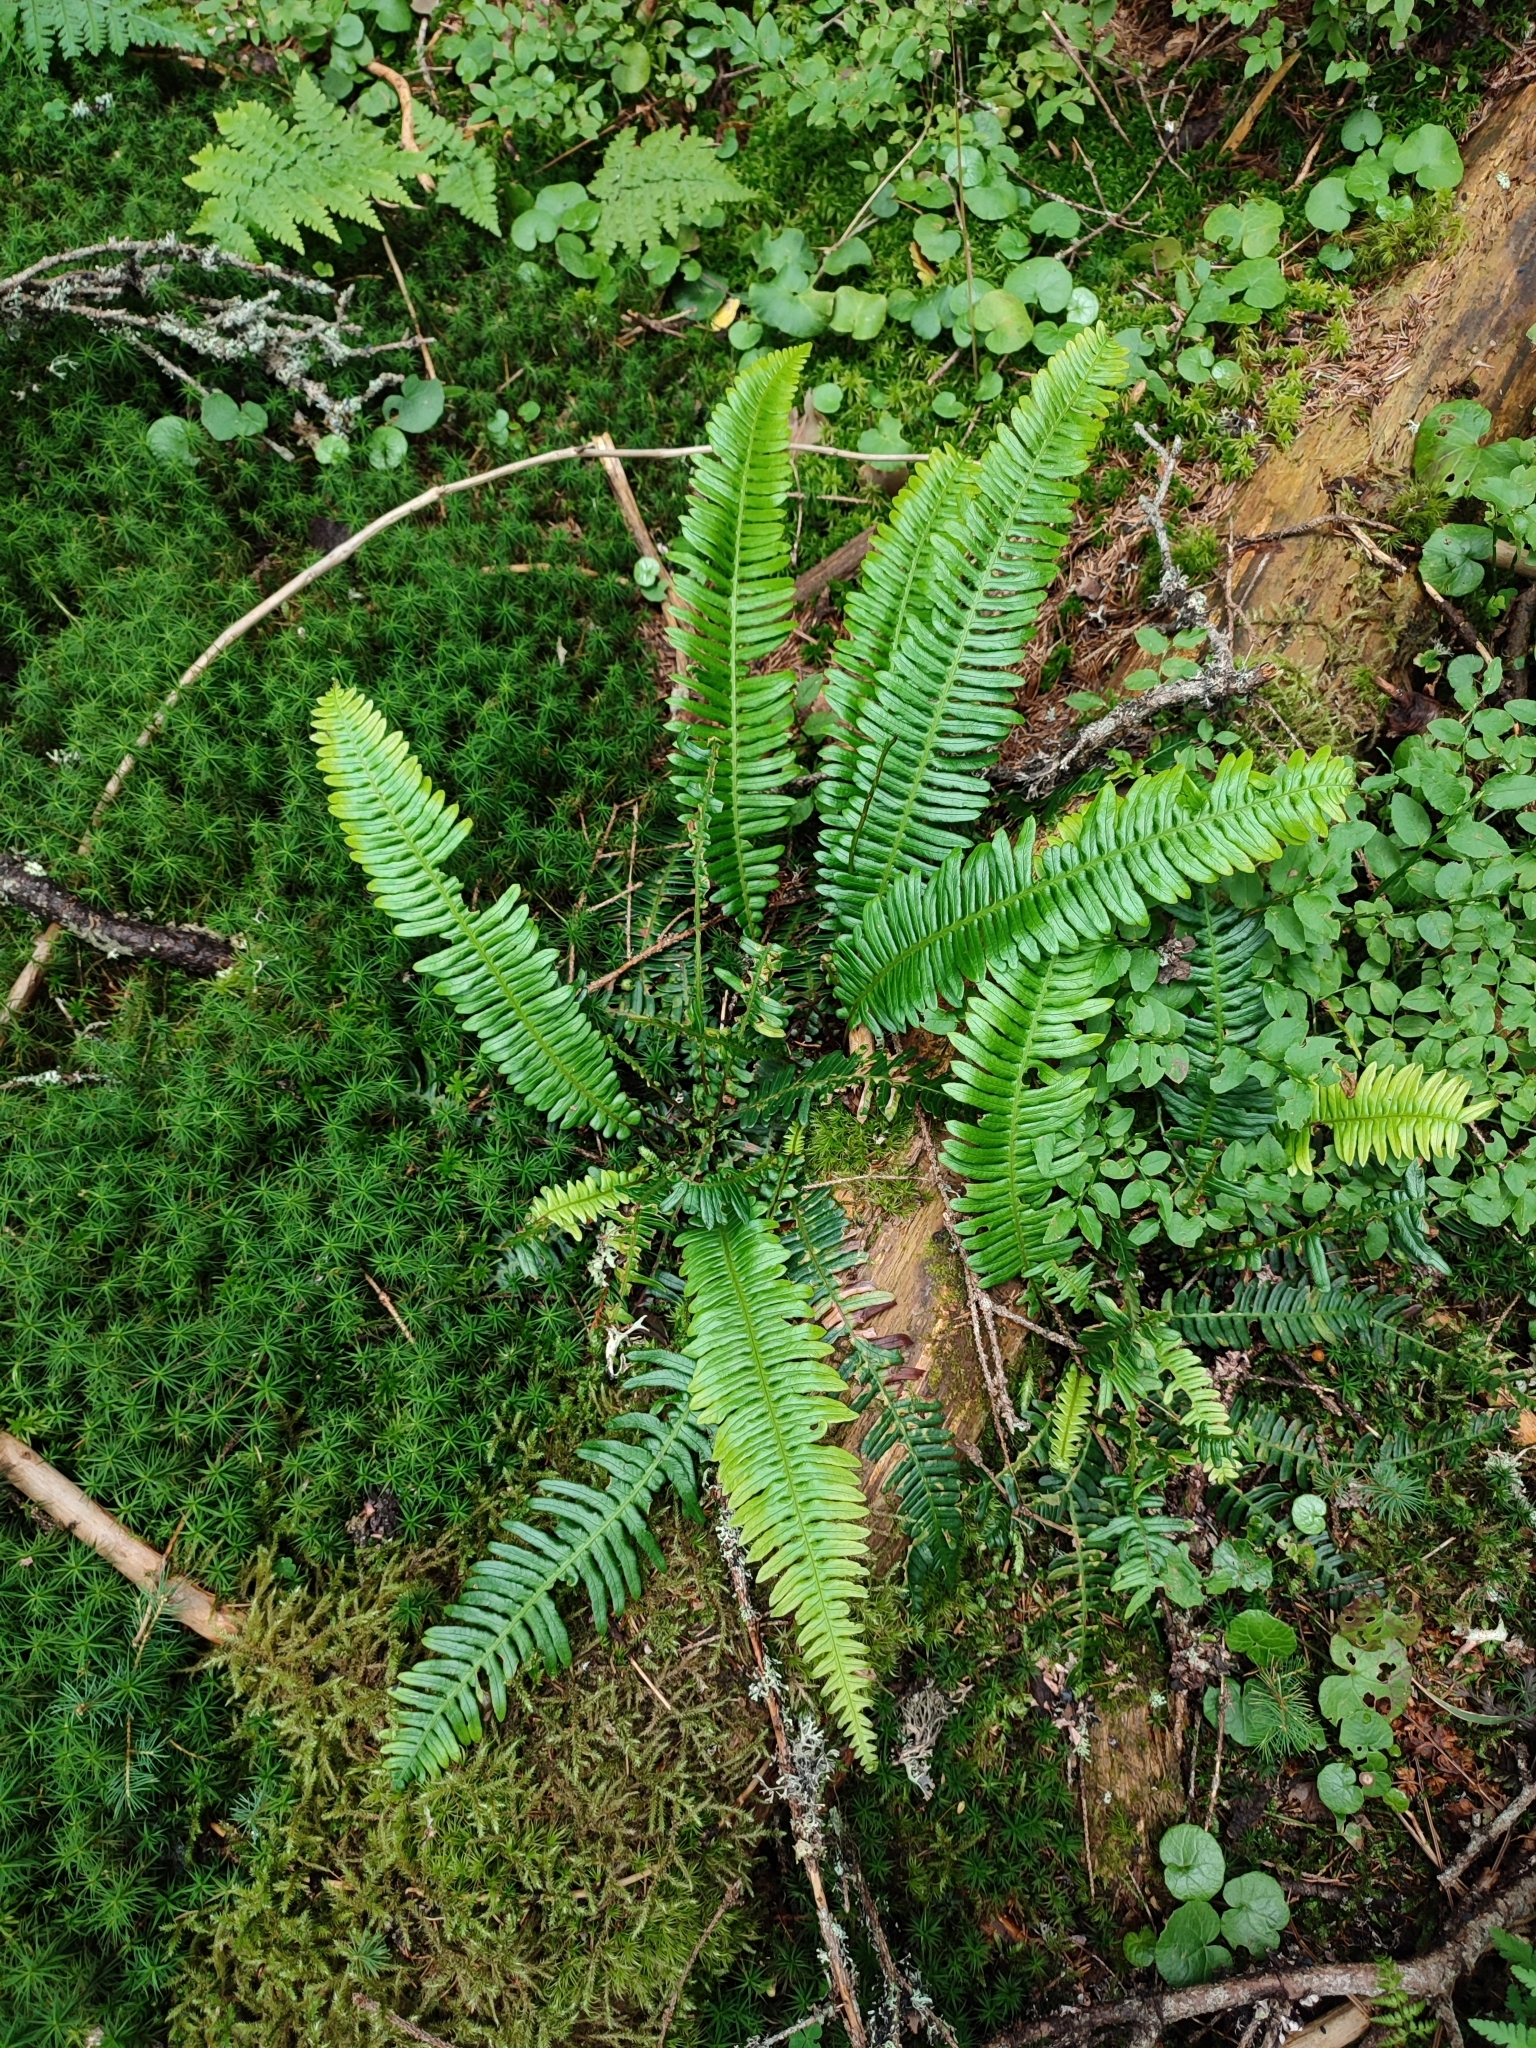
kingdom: Plantae
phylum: Tracheophyta
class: Polypodiopsida
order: Polypodiales
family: Blechnaceae
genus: Struthiopteris
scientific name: Struthiopteris spicant
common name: Deer fern
